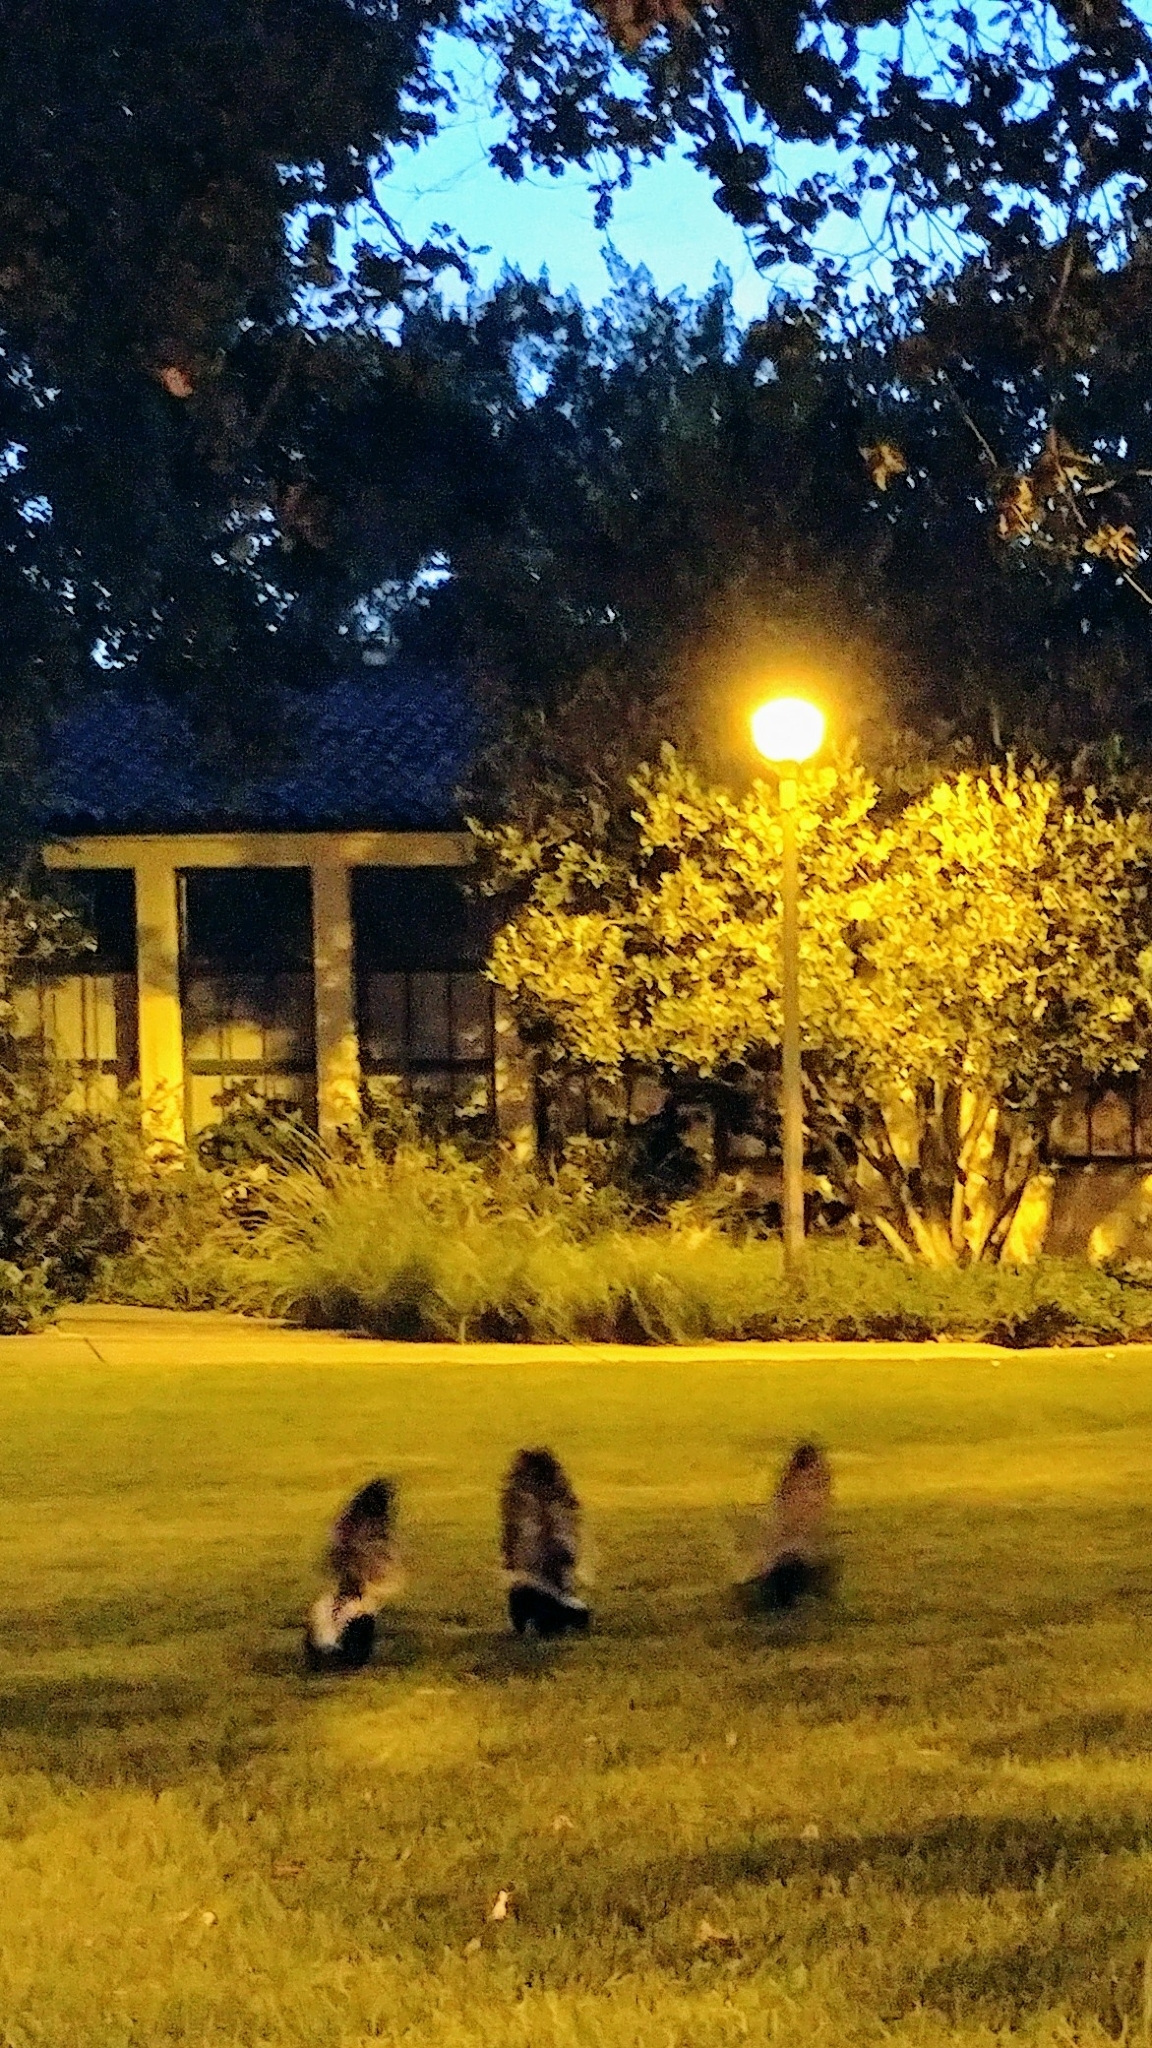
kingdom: Animalia
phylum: Chordata
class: Mammalia
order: Carnivora
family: Mephitidae
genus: Mephitis
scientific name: Mephitis mephitis
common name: Striped skunk
